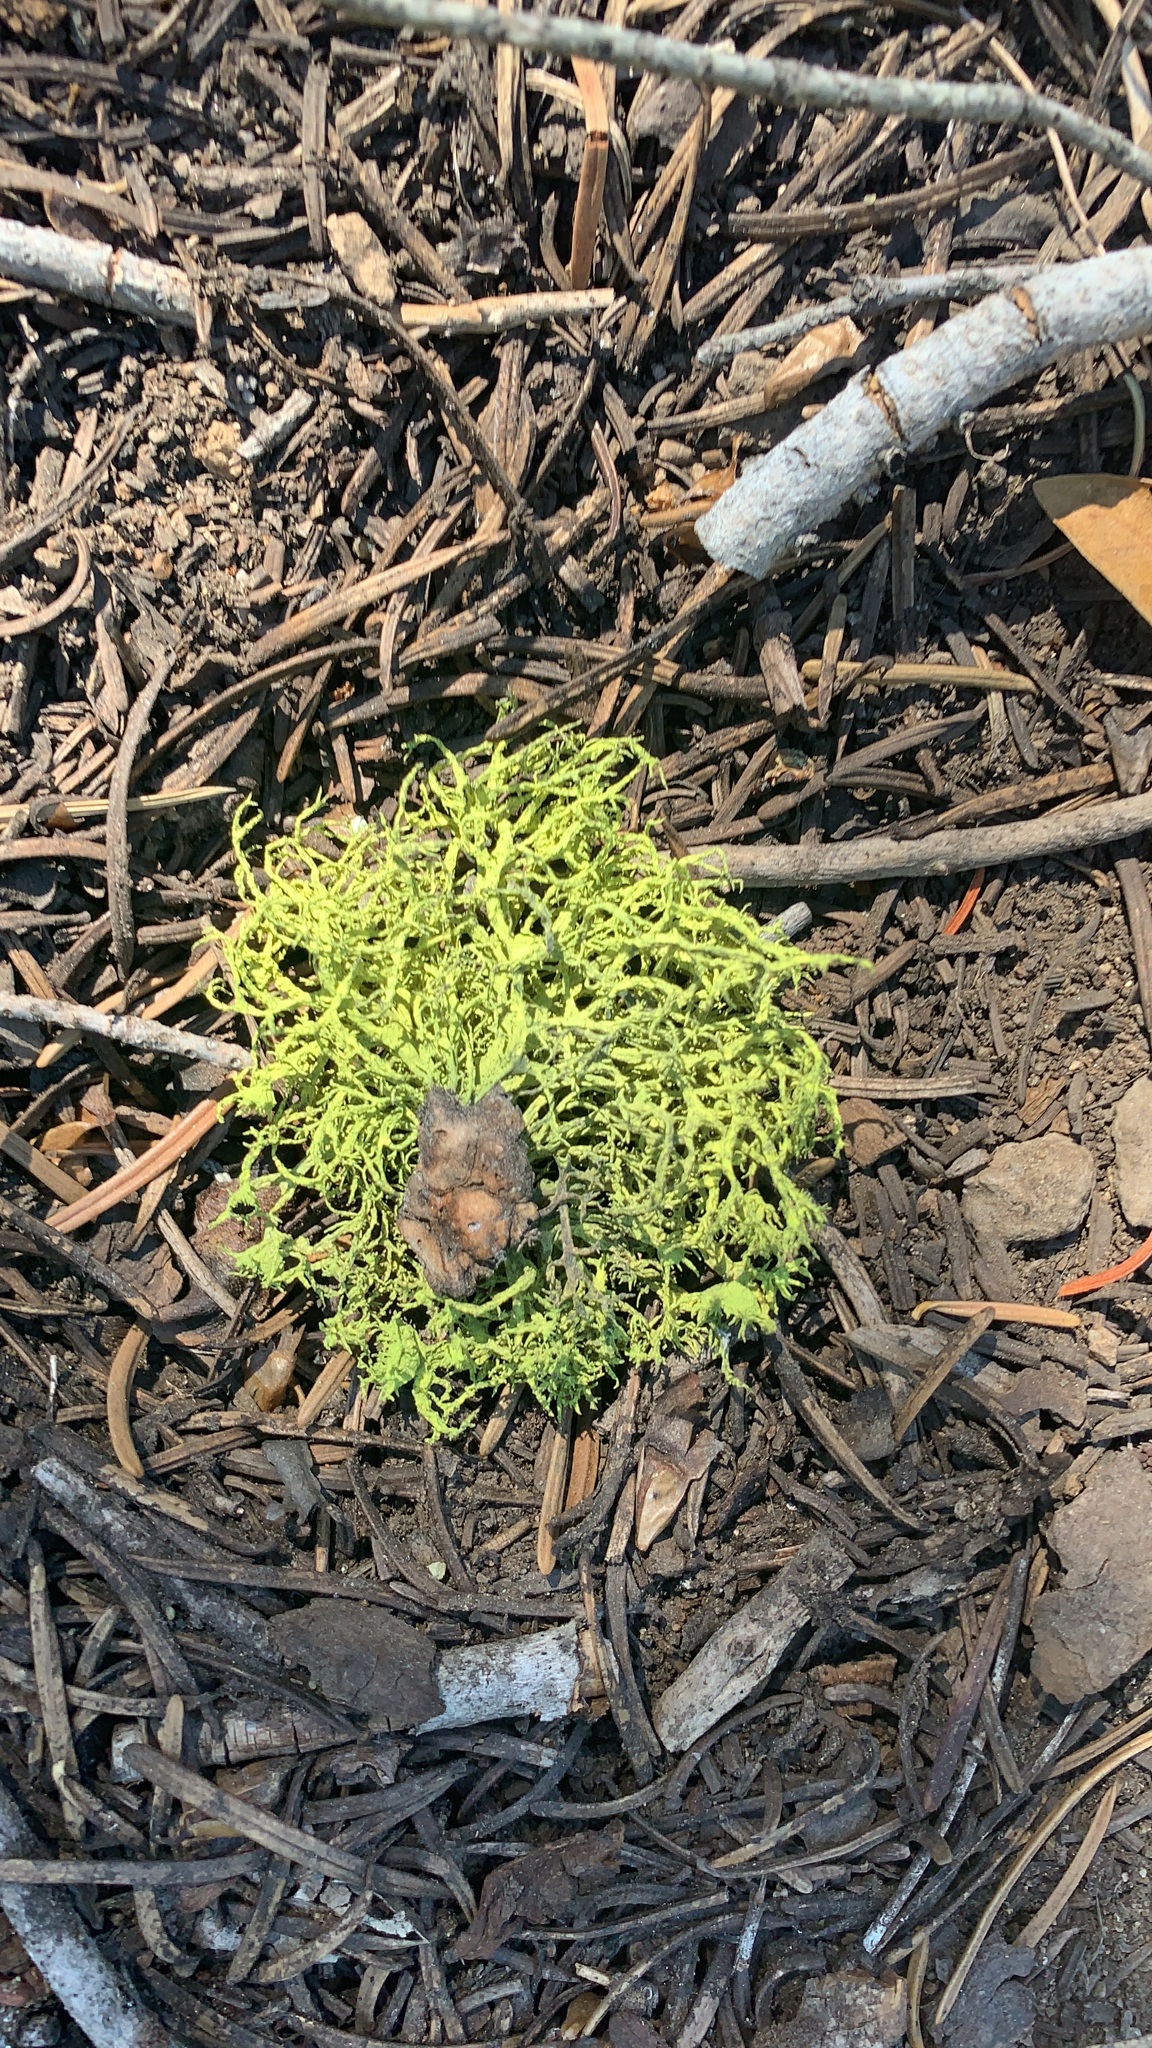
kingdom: Fungi
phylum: Ascomycota
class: Lecanoromycetes
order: Lecanorales
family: Parmeliaceae
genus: Letharia
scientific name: Letharia vulpina
